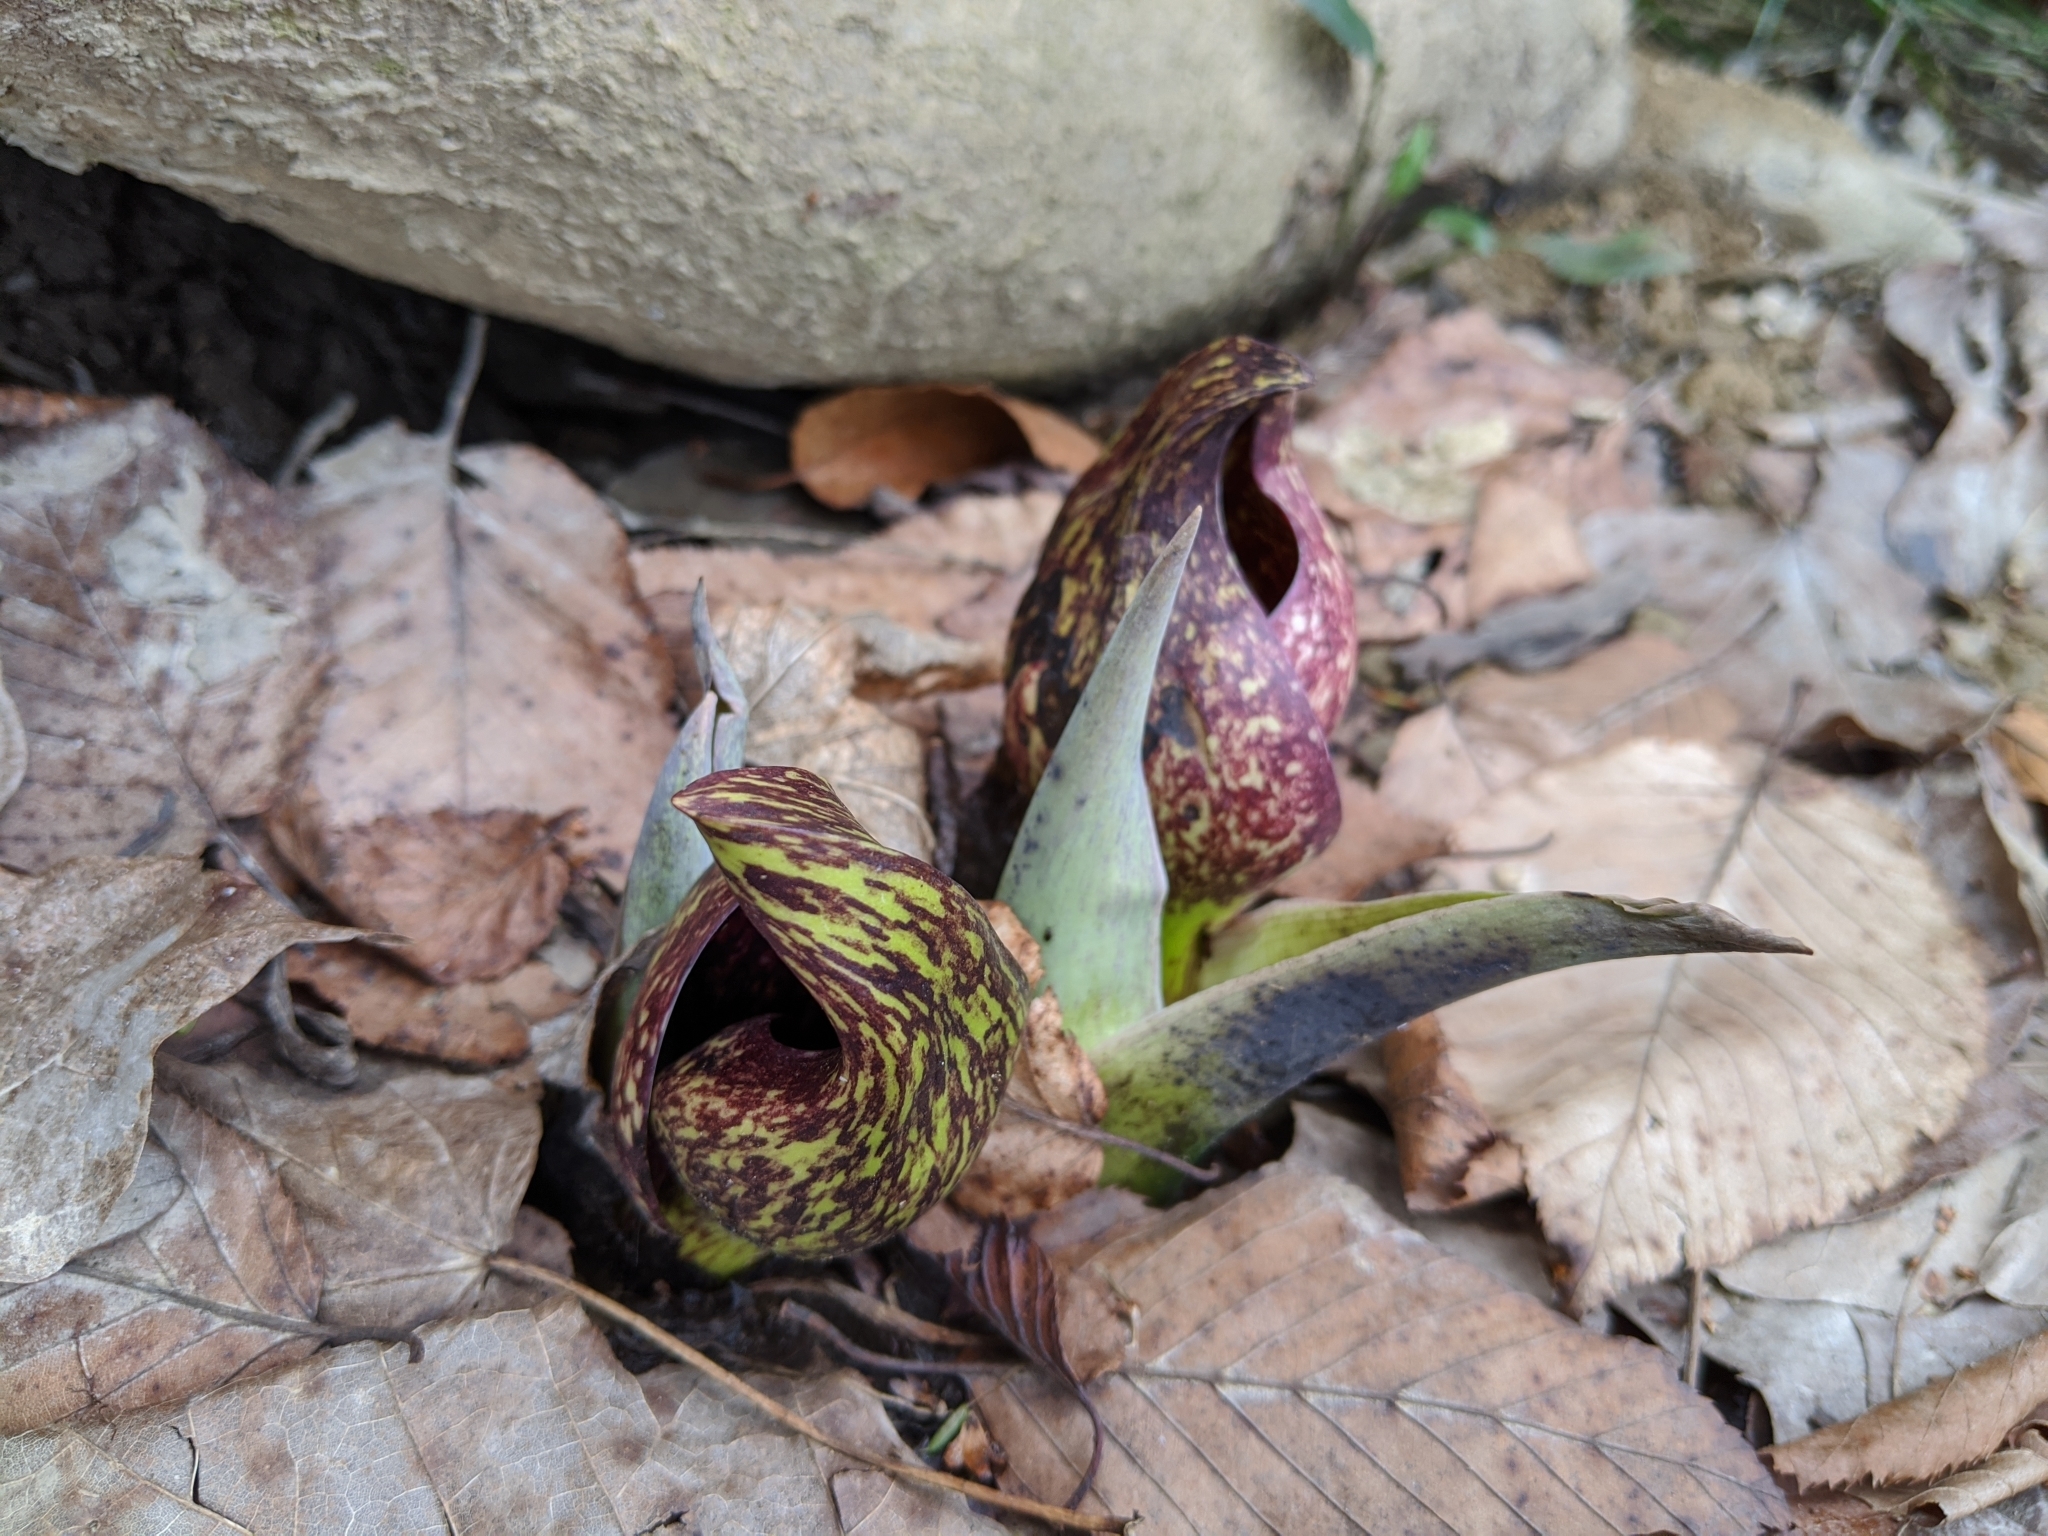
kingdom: Plantae
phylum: Tracheophyta
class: Liliopsida
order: Alismatales
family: Araceae
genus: Symplocarpus
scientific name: Symplocarpus foetidus
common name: Eastern skunk cabbage
